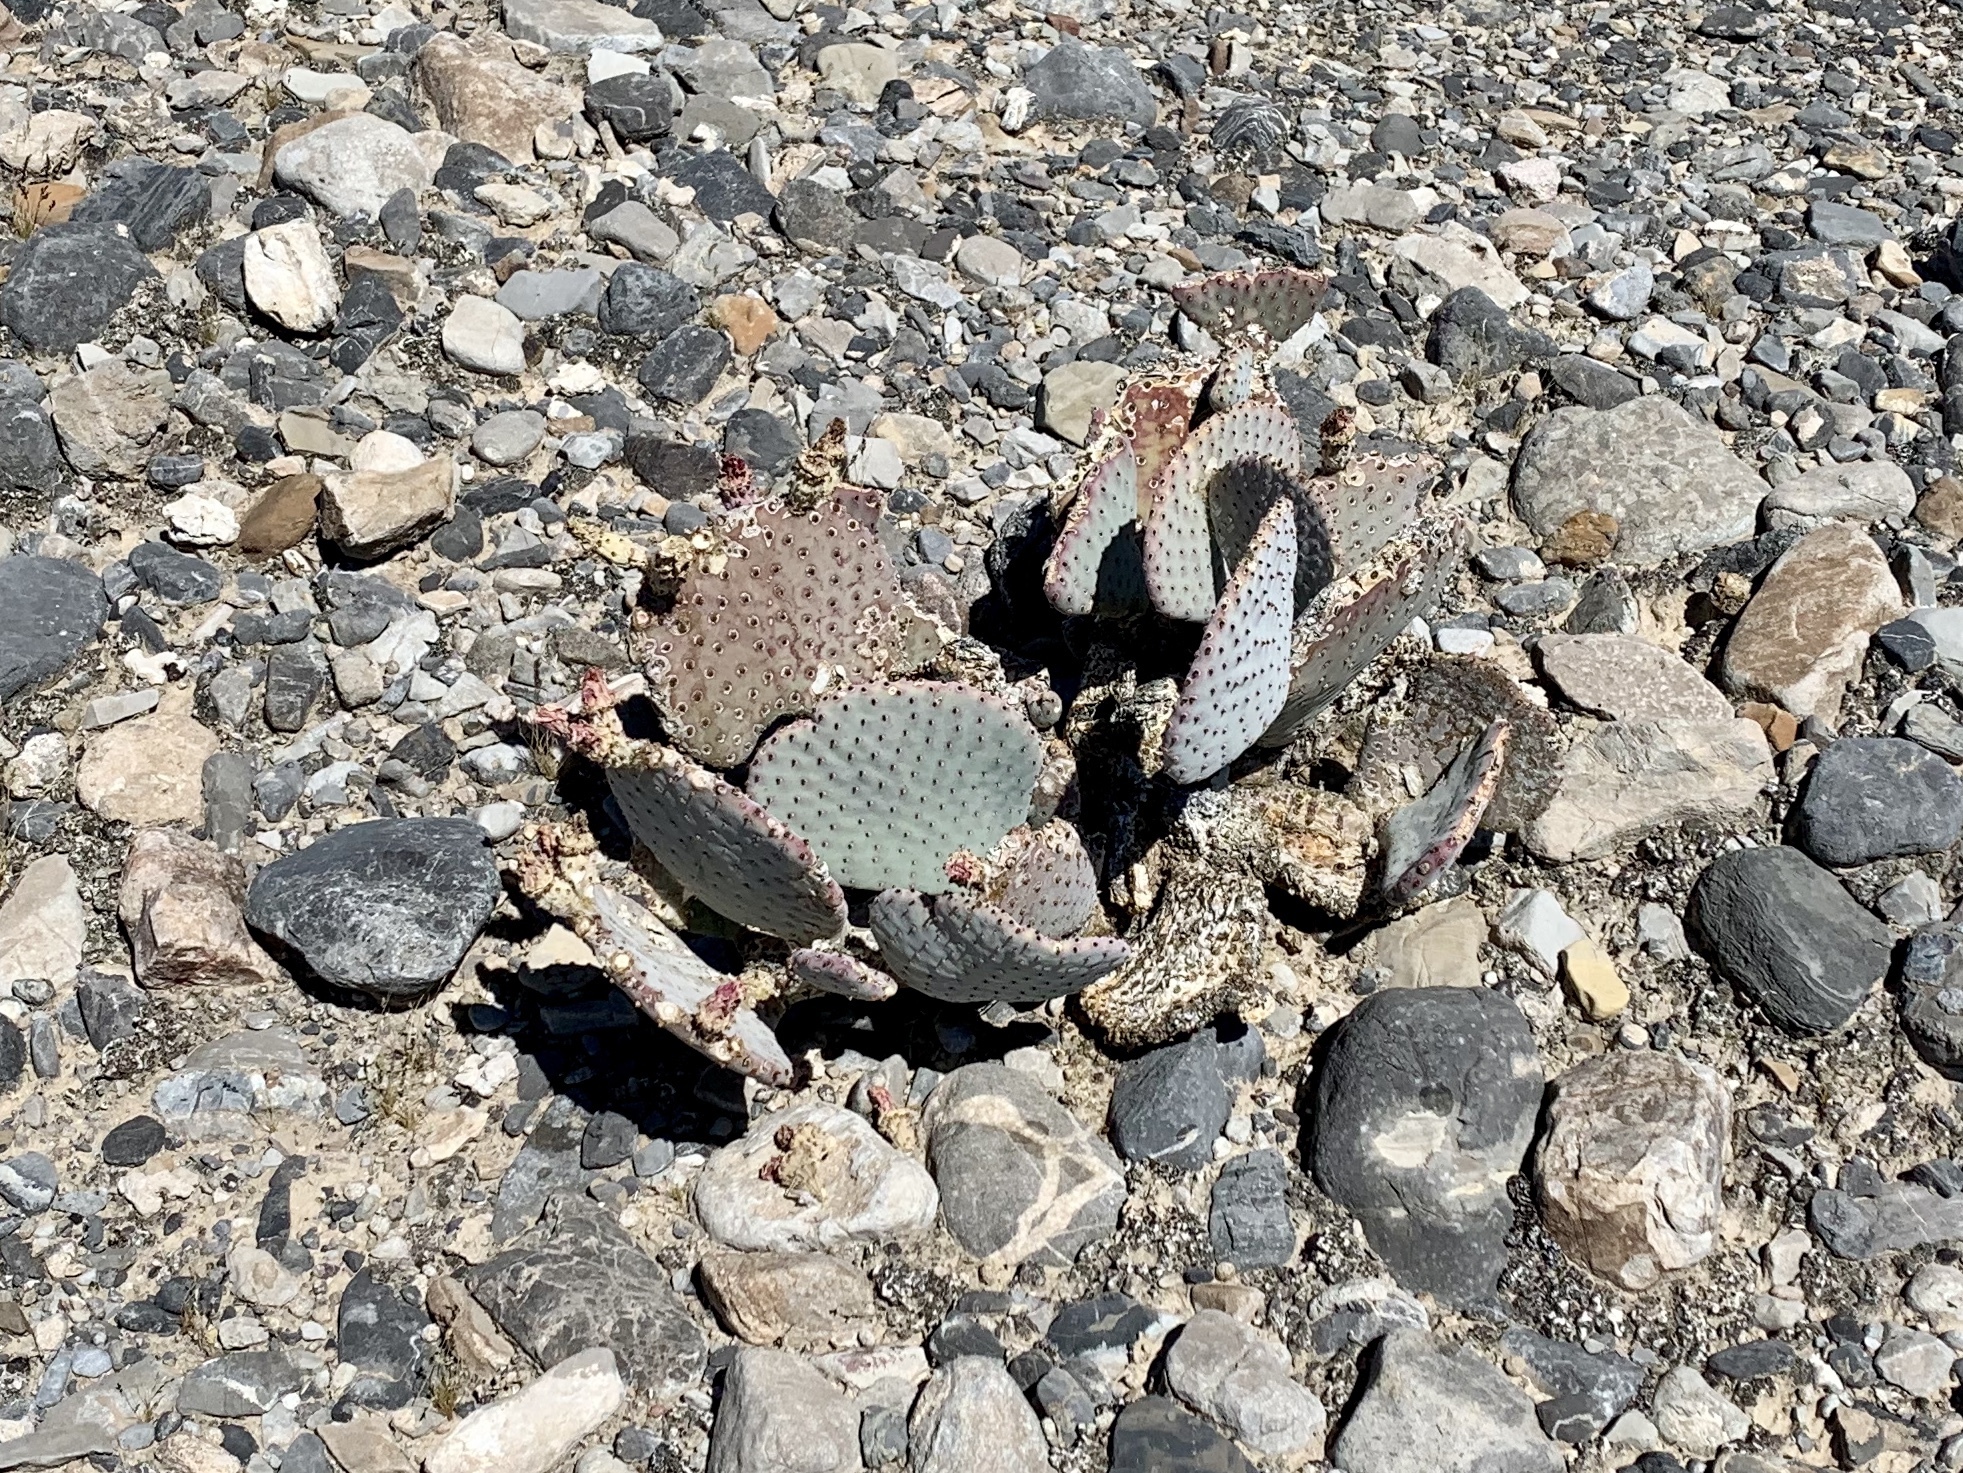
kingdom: Plantae
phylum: Tracheophyta
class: Magnoliopsida
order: Caryophyllales
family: Cactaceae
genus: Opuntia
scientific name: Opuntia basilaris
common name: Beavertail prickly-pear
